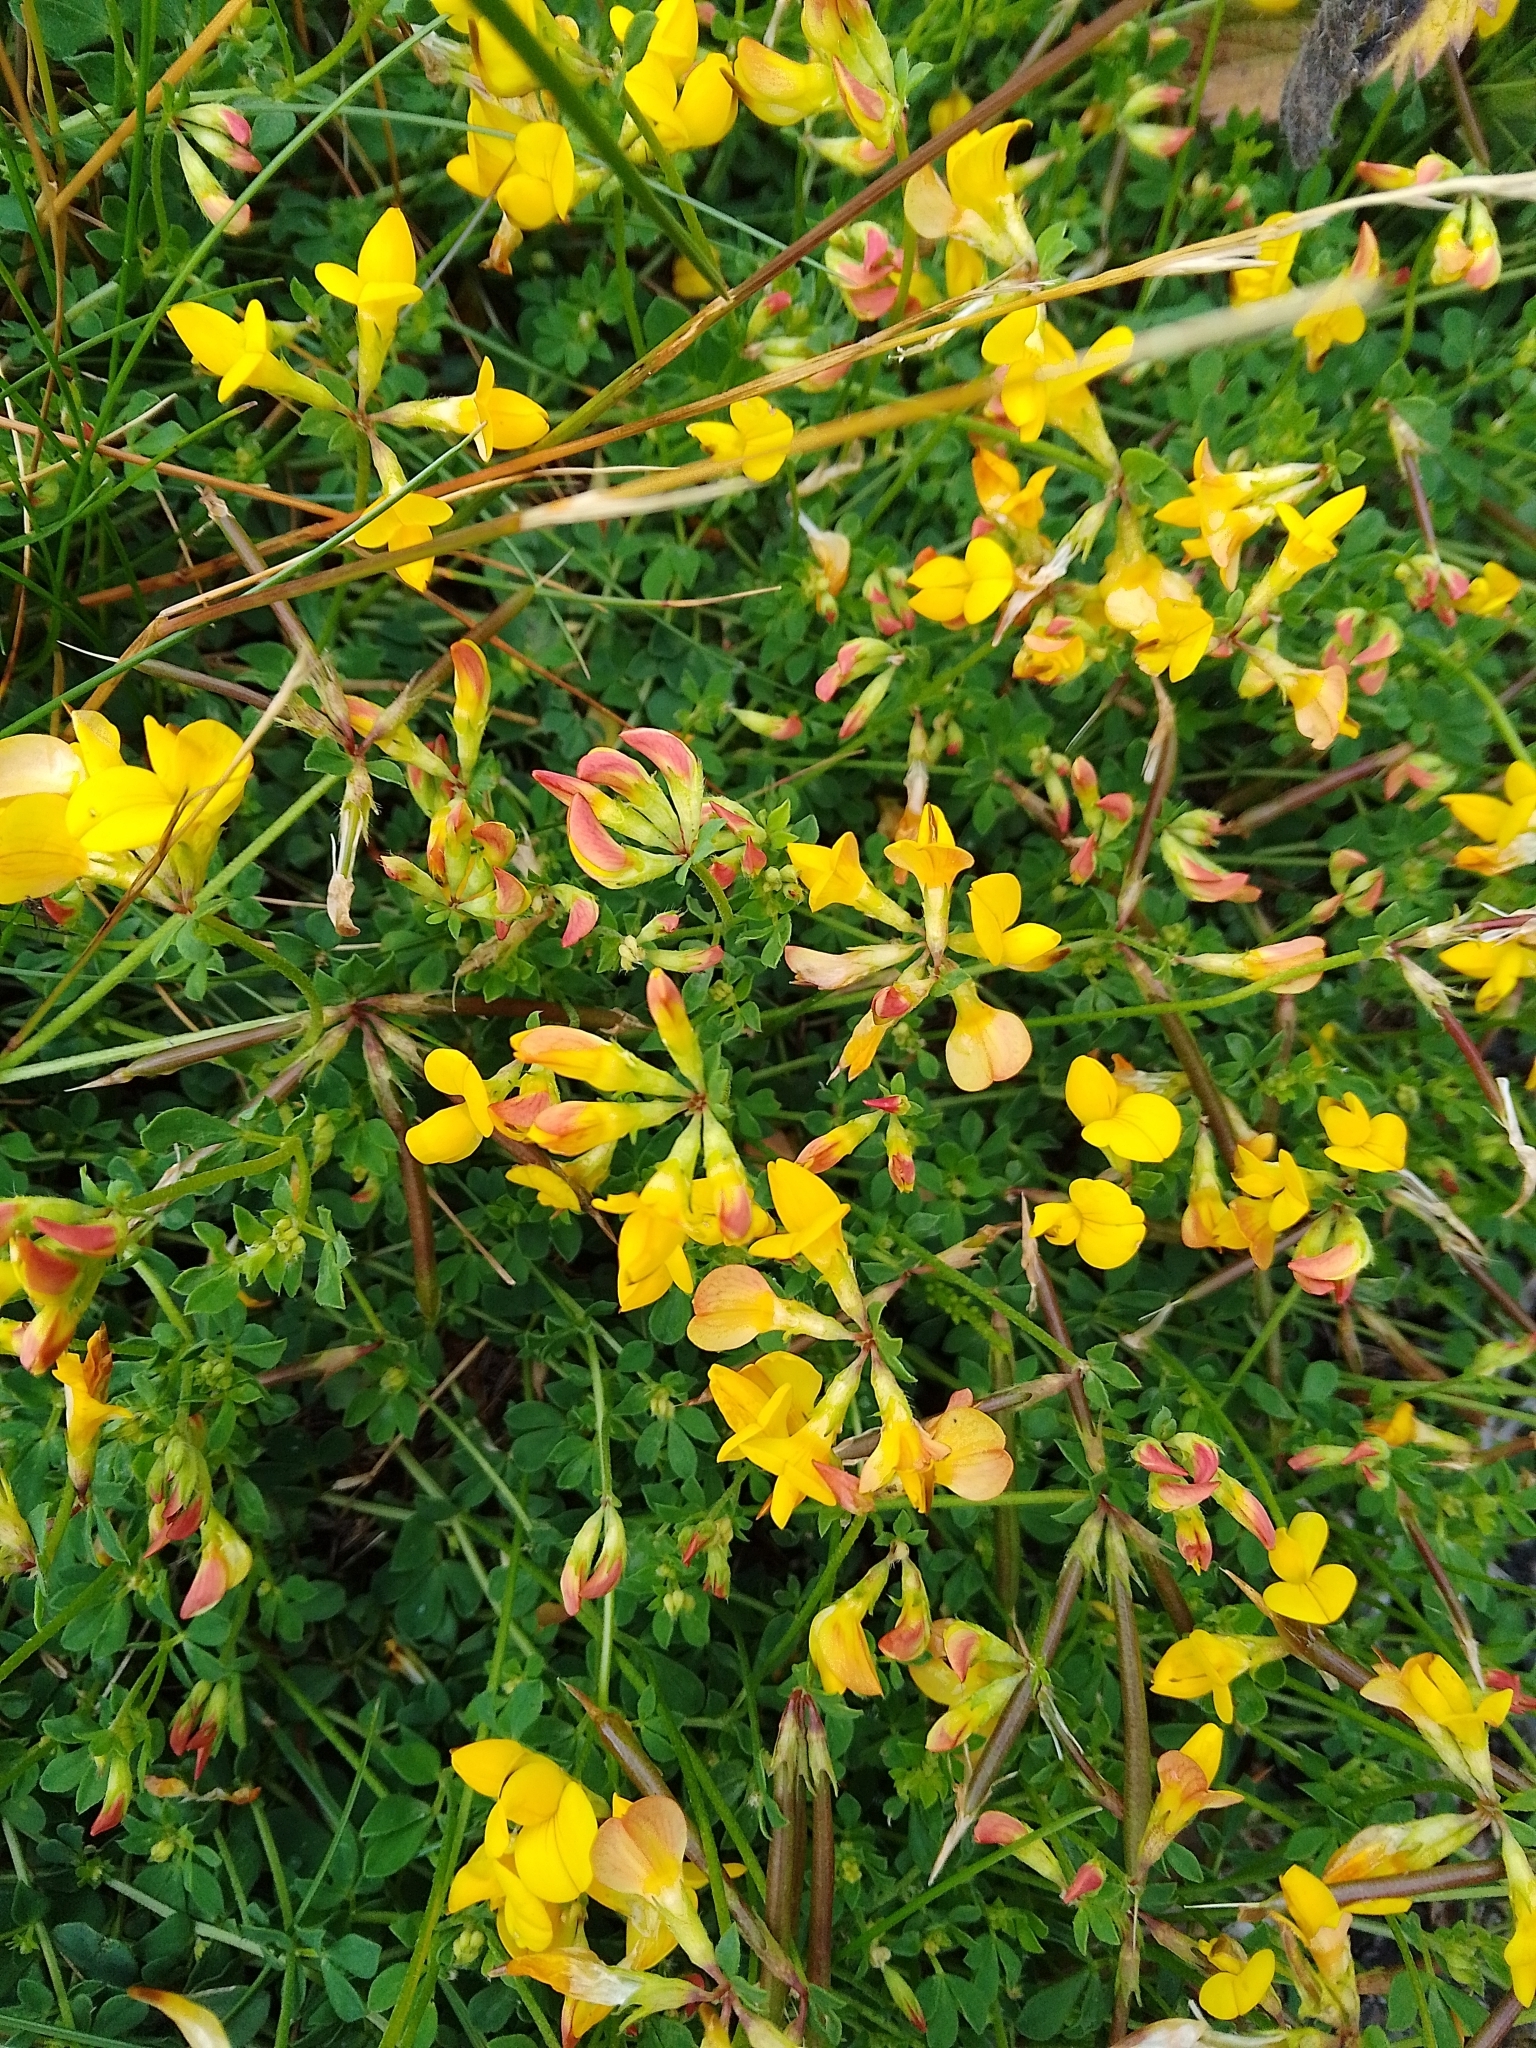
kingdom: Plantae
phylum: Tracheophyta
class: Magnoliopsida
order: Fabales
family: Fabaceae
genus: Lotus
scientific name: Lotus corniculatus
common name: Common bird's-foot-trefoil
